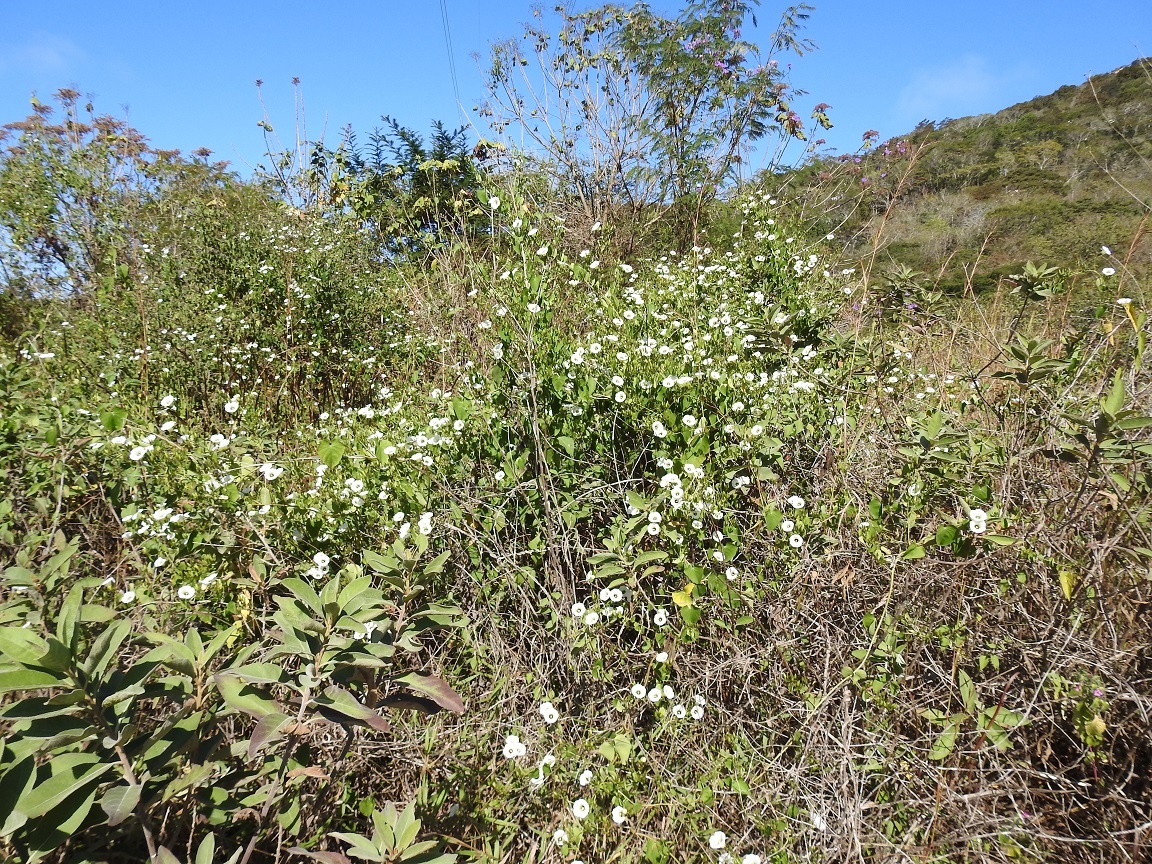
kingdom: Plantae
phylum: Tracheophyta
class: Magnoliopsida
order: Solanales
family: Convolvulaceae
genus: Ipomoea
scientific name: Ipomoea corymbosa
